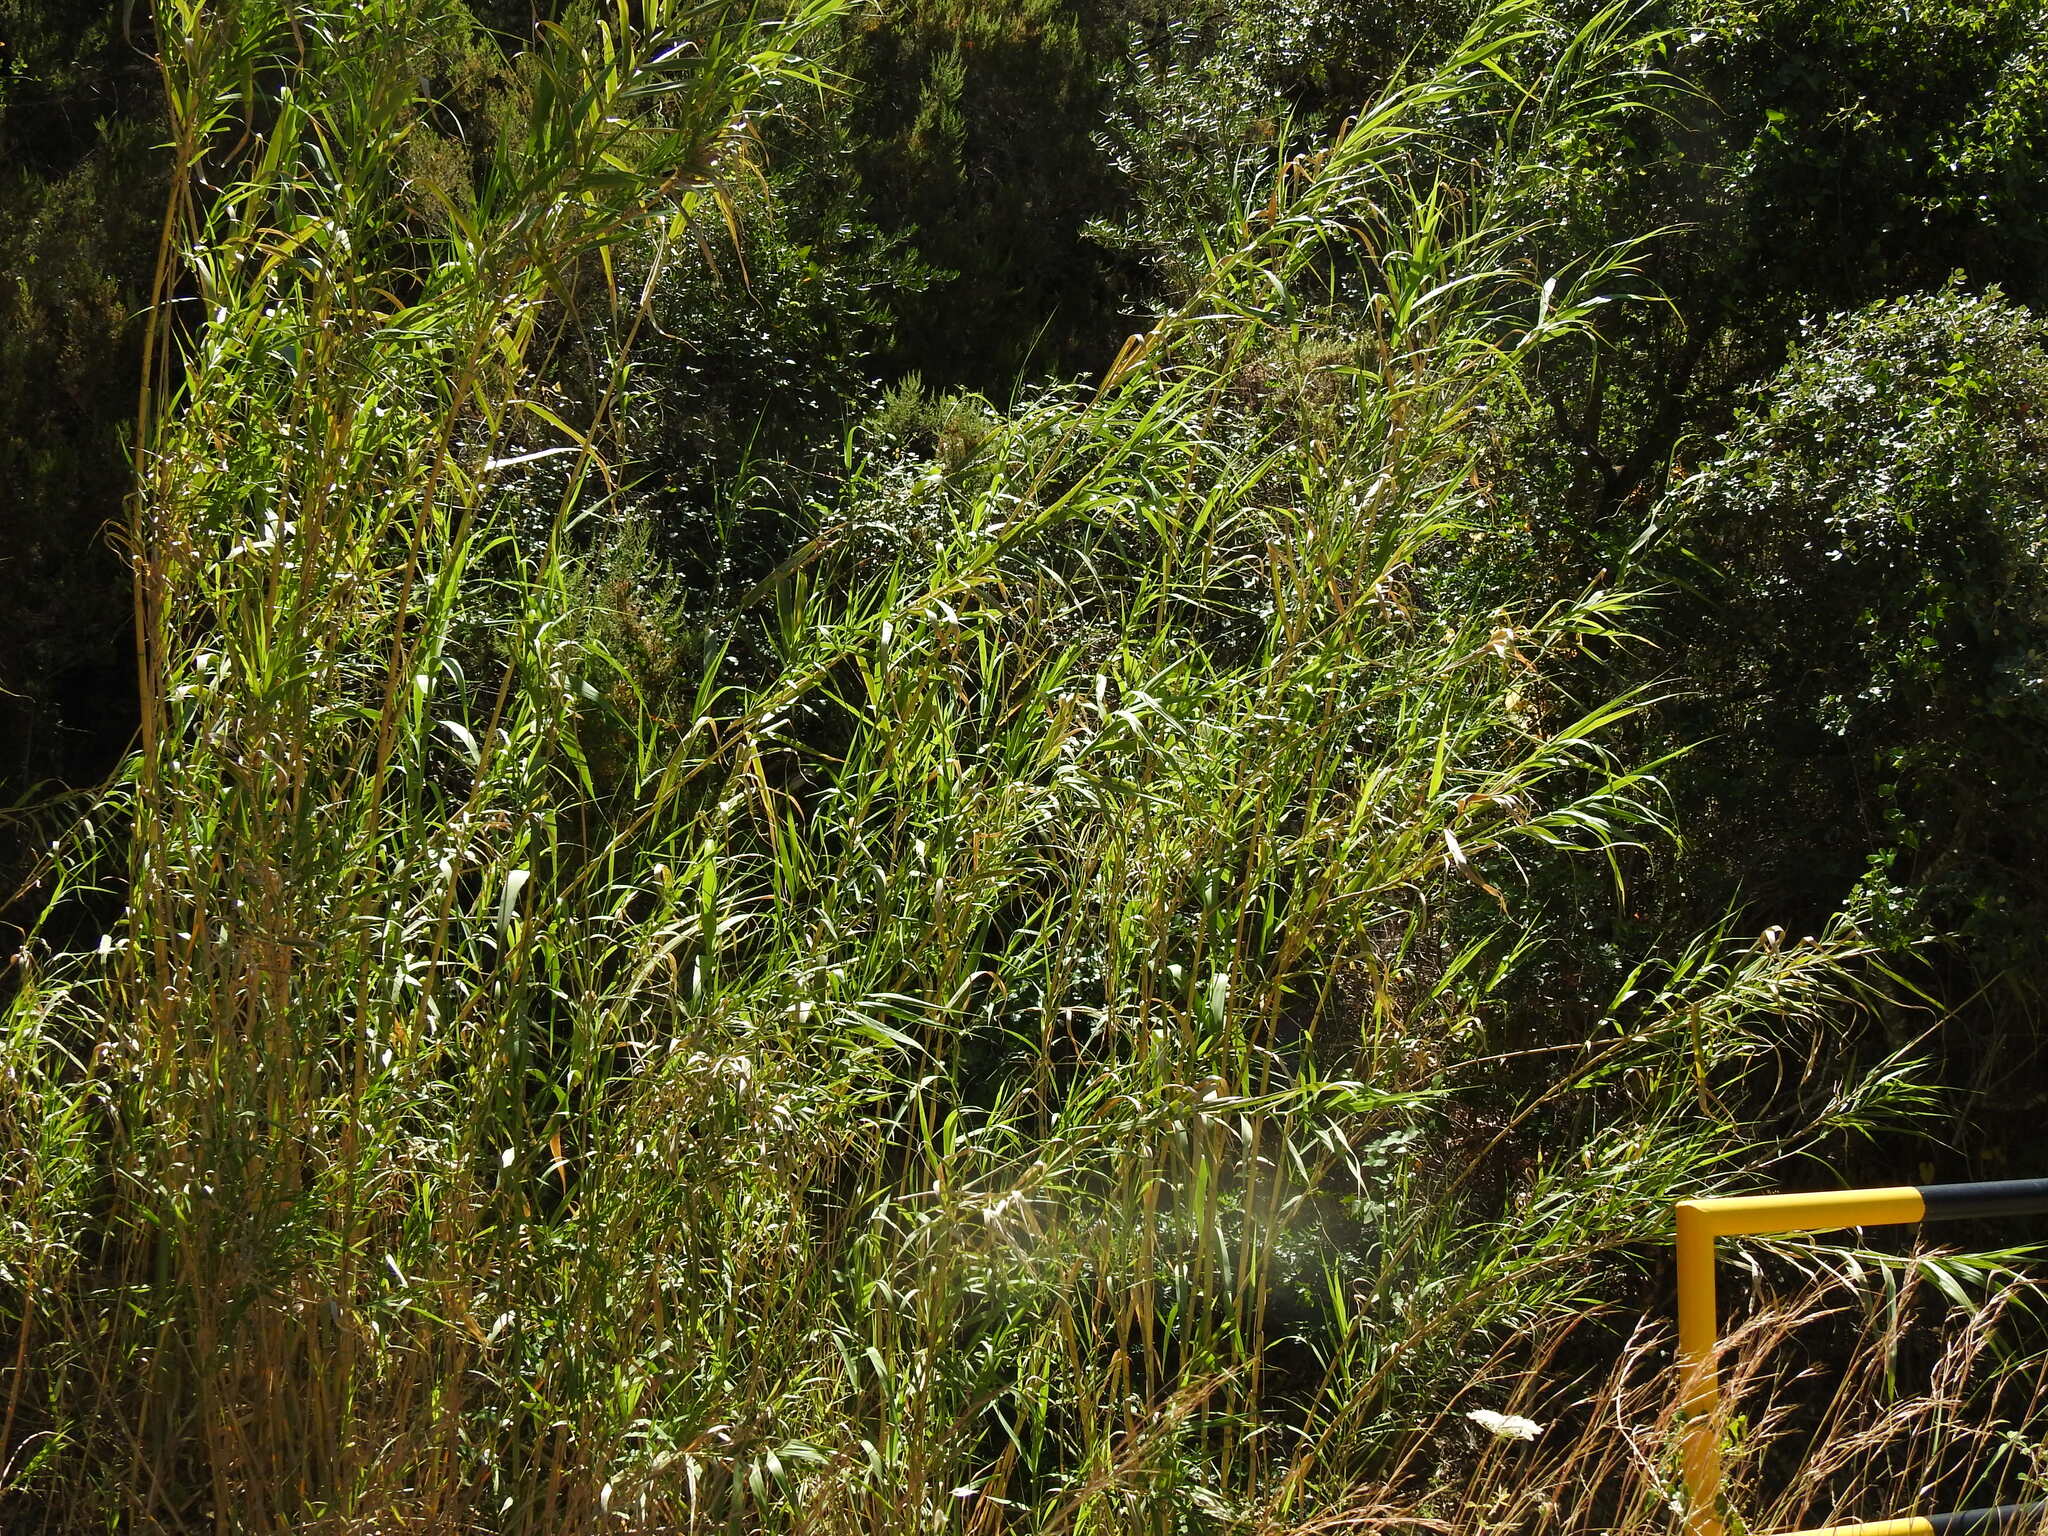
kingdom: Plantae
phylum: Tracheophyta
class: Liliopsida
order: Poales
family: Poaceae
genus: Arundo
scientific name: Arundo donax
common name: Giant reed
